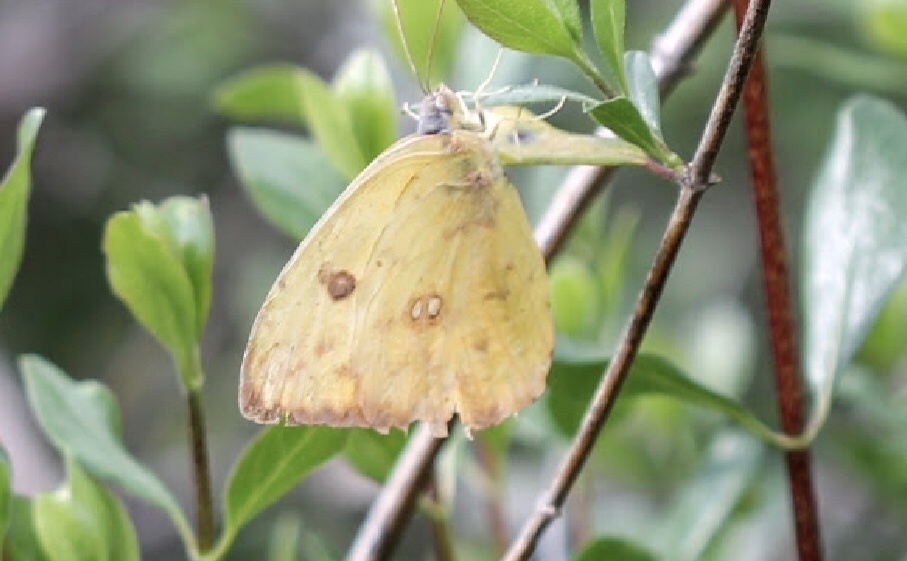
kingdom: Animalia
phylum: Arthropoda
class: Insecta
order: Lepidoptera
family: Pieridae
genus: Phoebis
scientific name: Phoebis sennae
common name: Cloudless sulphur
